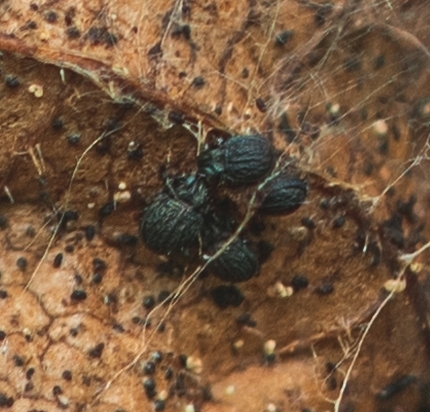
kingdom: Animalia
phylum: Arthropoda
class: Arachnida
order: Sarcoptiformes
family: Carabodidae
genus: Carabodes
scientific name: Carabodes femoralis
